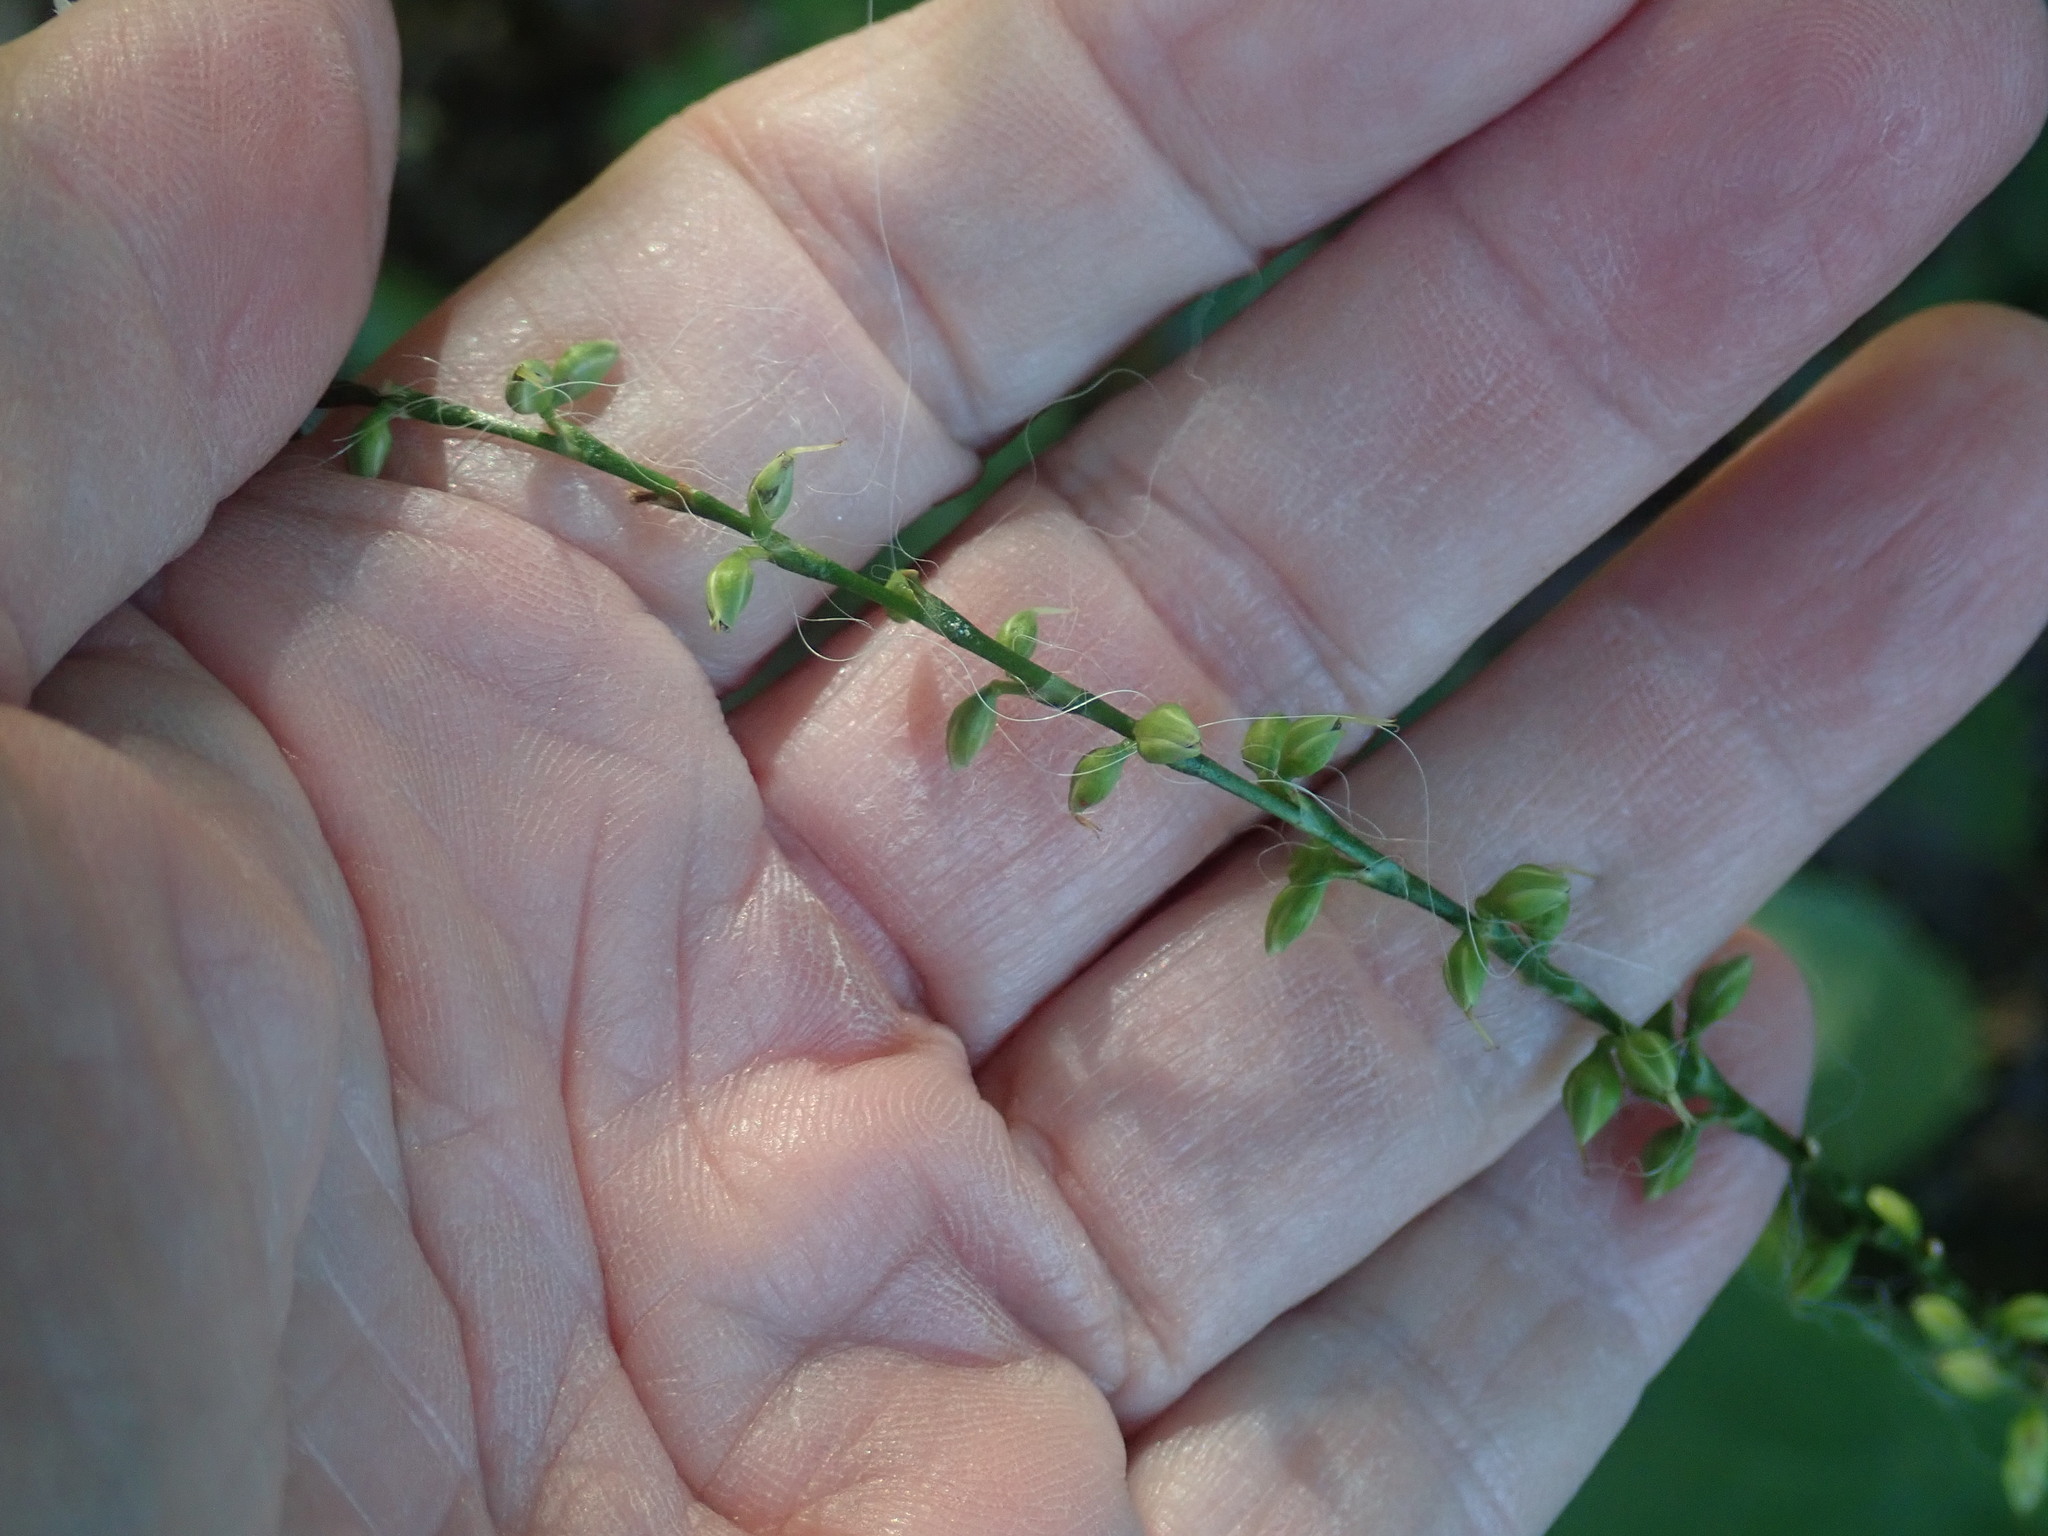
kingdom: Plantae
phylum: Tracheophyta
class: Magnoliopsida
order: Caryophyllales
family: Polygonaceae
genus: Persicaria
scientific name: Persicaria virginiana
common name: Jumpseed
